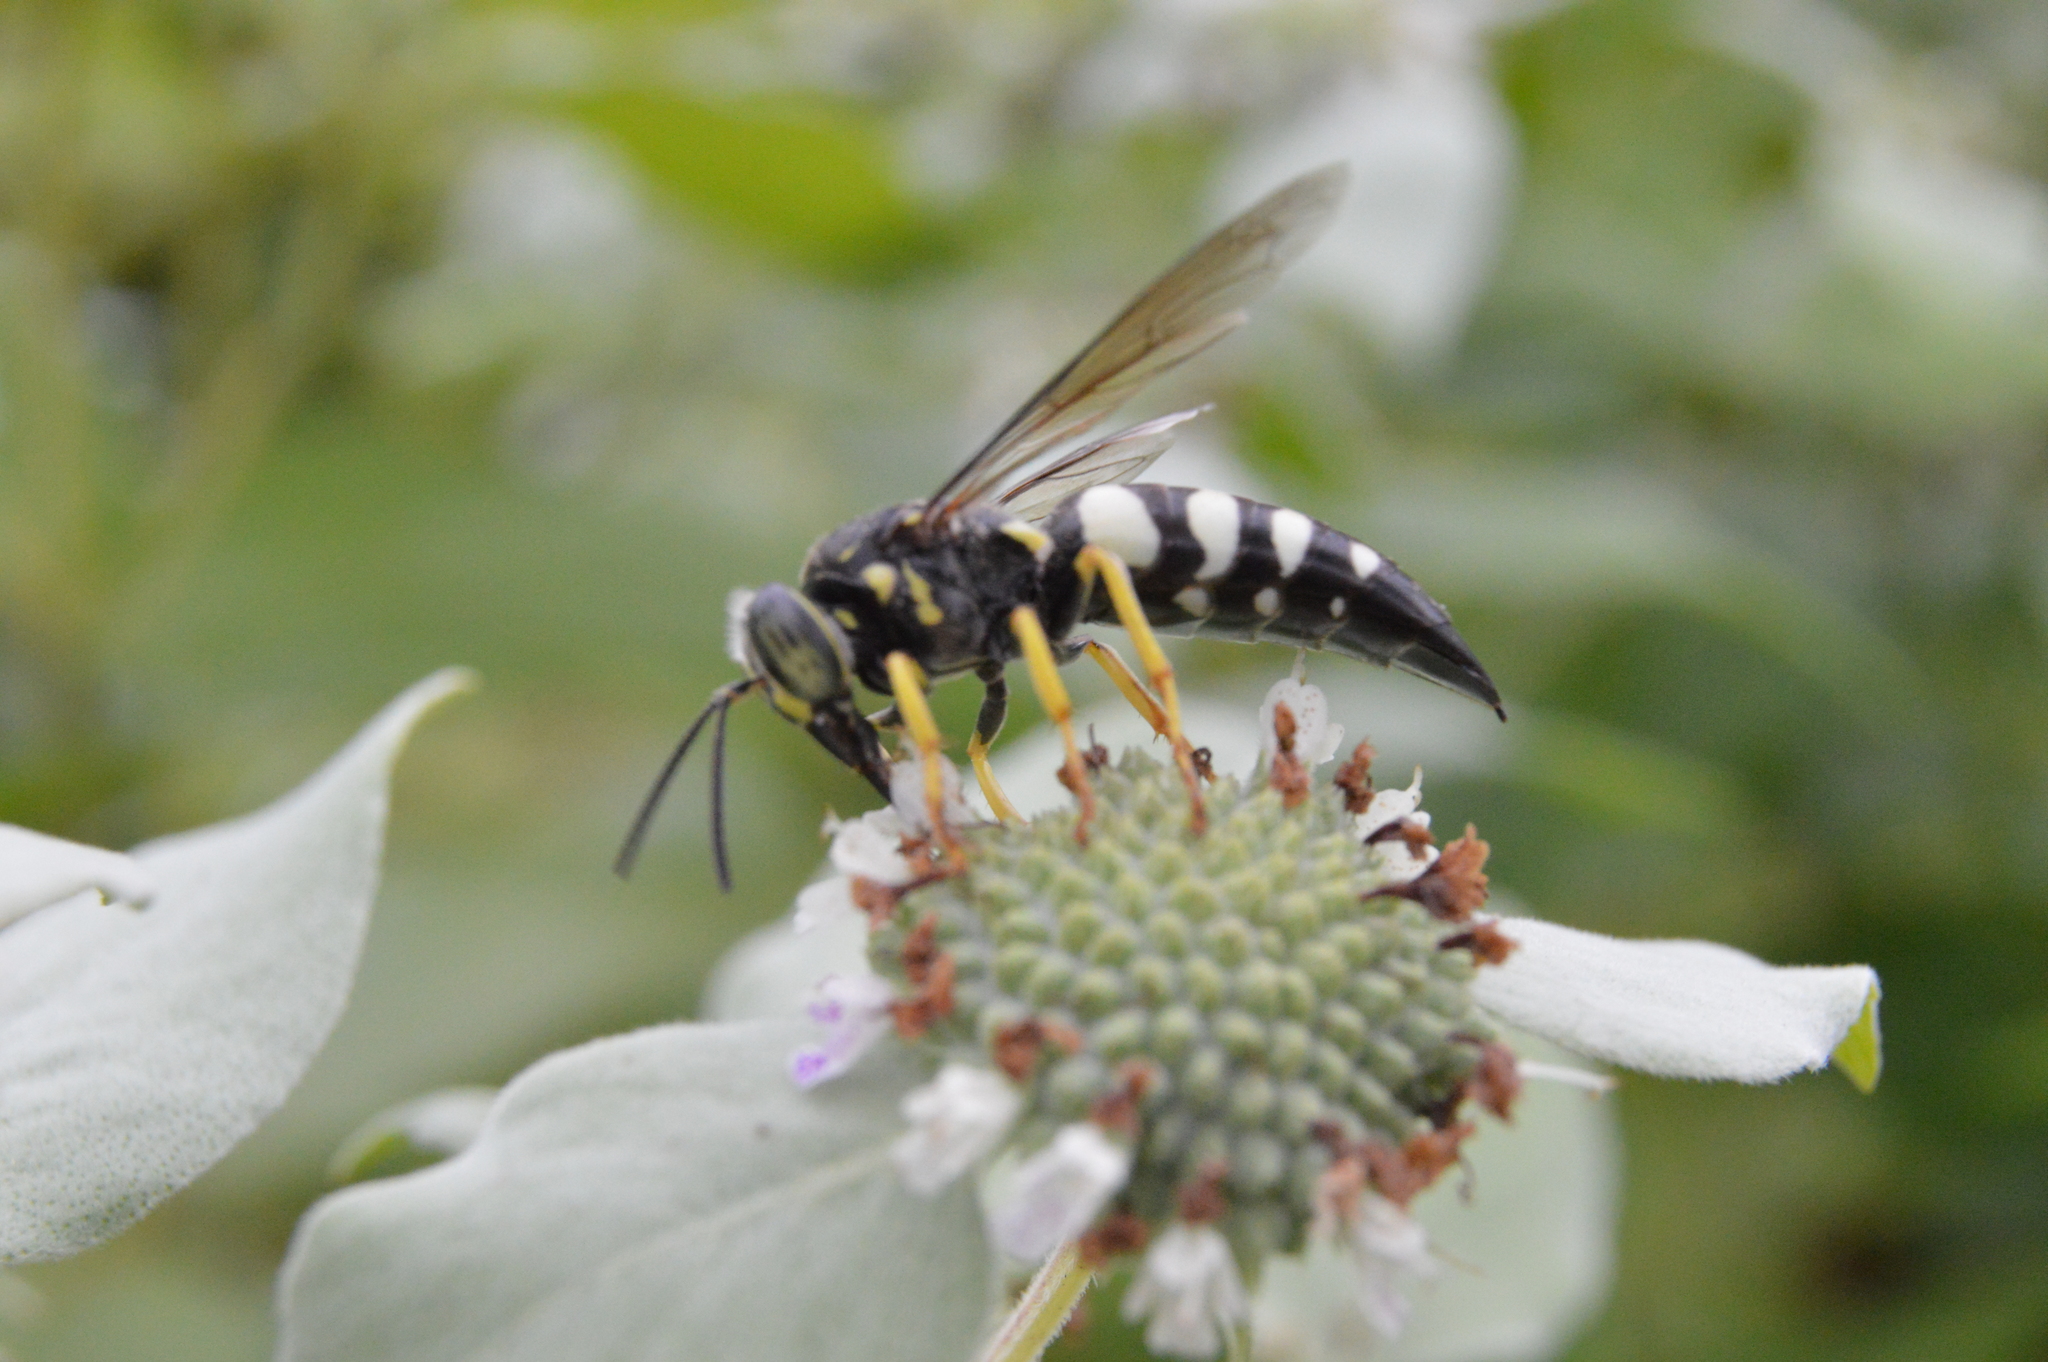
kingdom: Animalia
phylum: Arthropoda
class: Insecta
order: Hymenoptera
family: Crabronidae
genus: Bicyrtes
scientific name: Bicyrtes quadrifasciatus
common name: Four-banded stink bug hunter wasp
